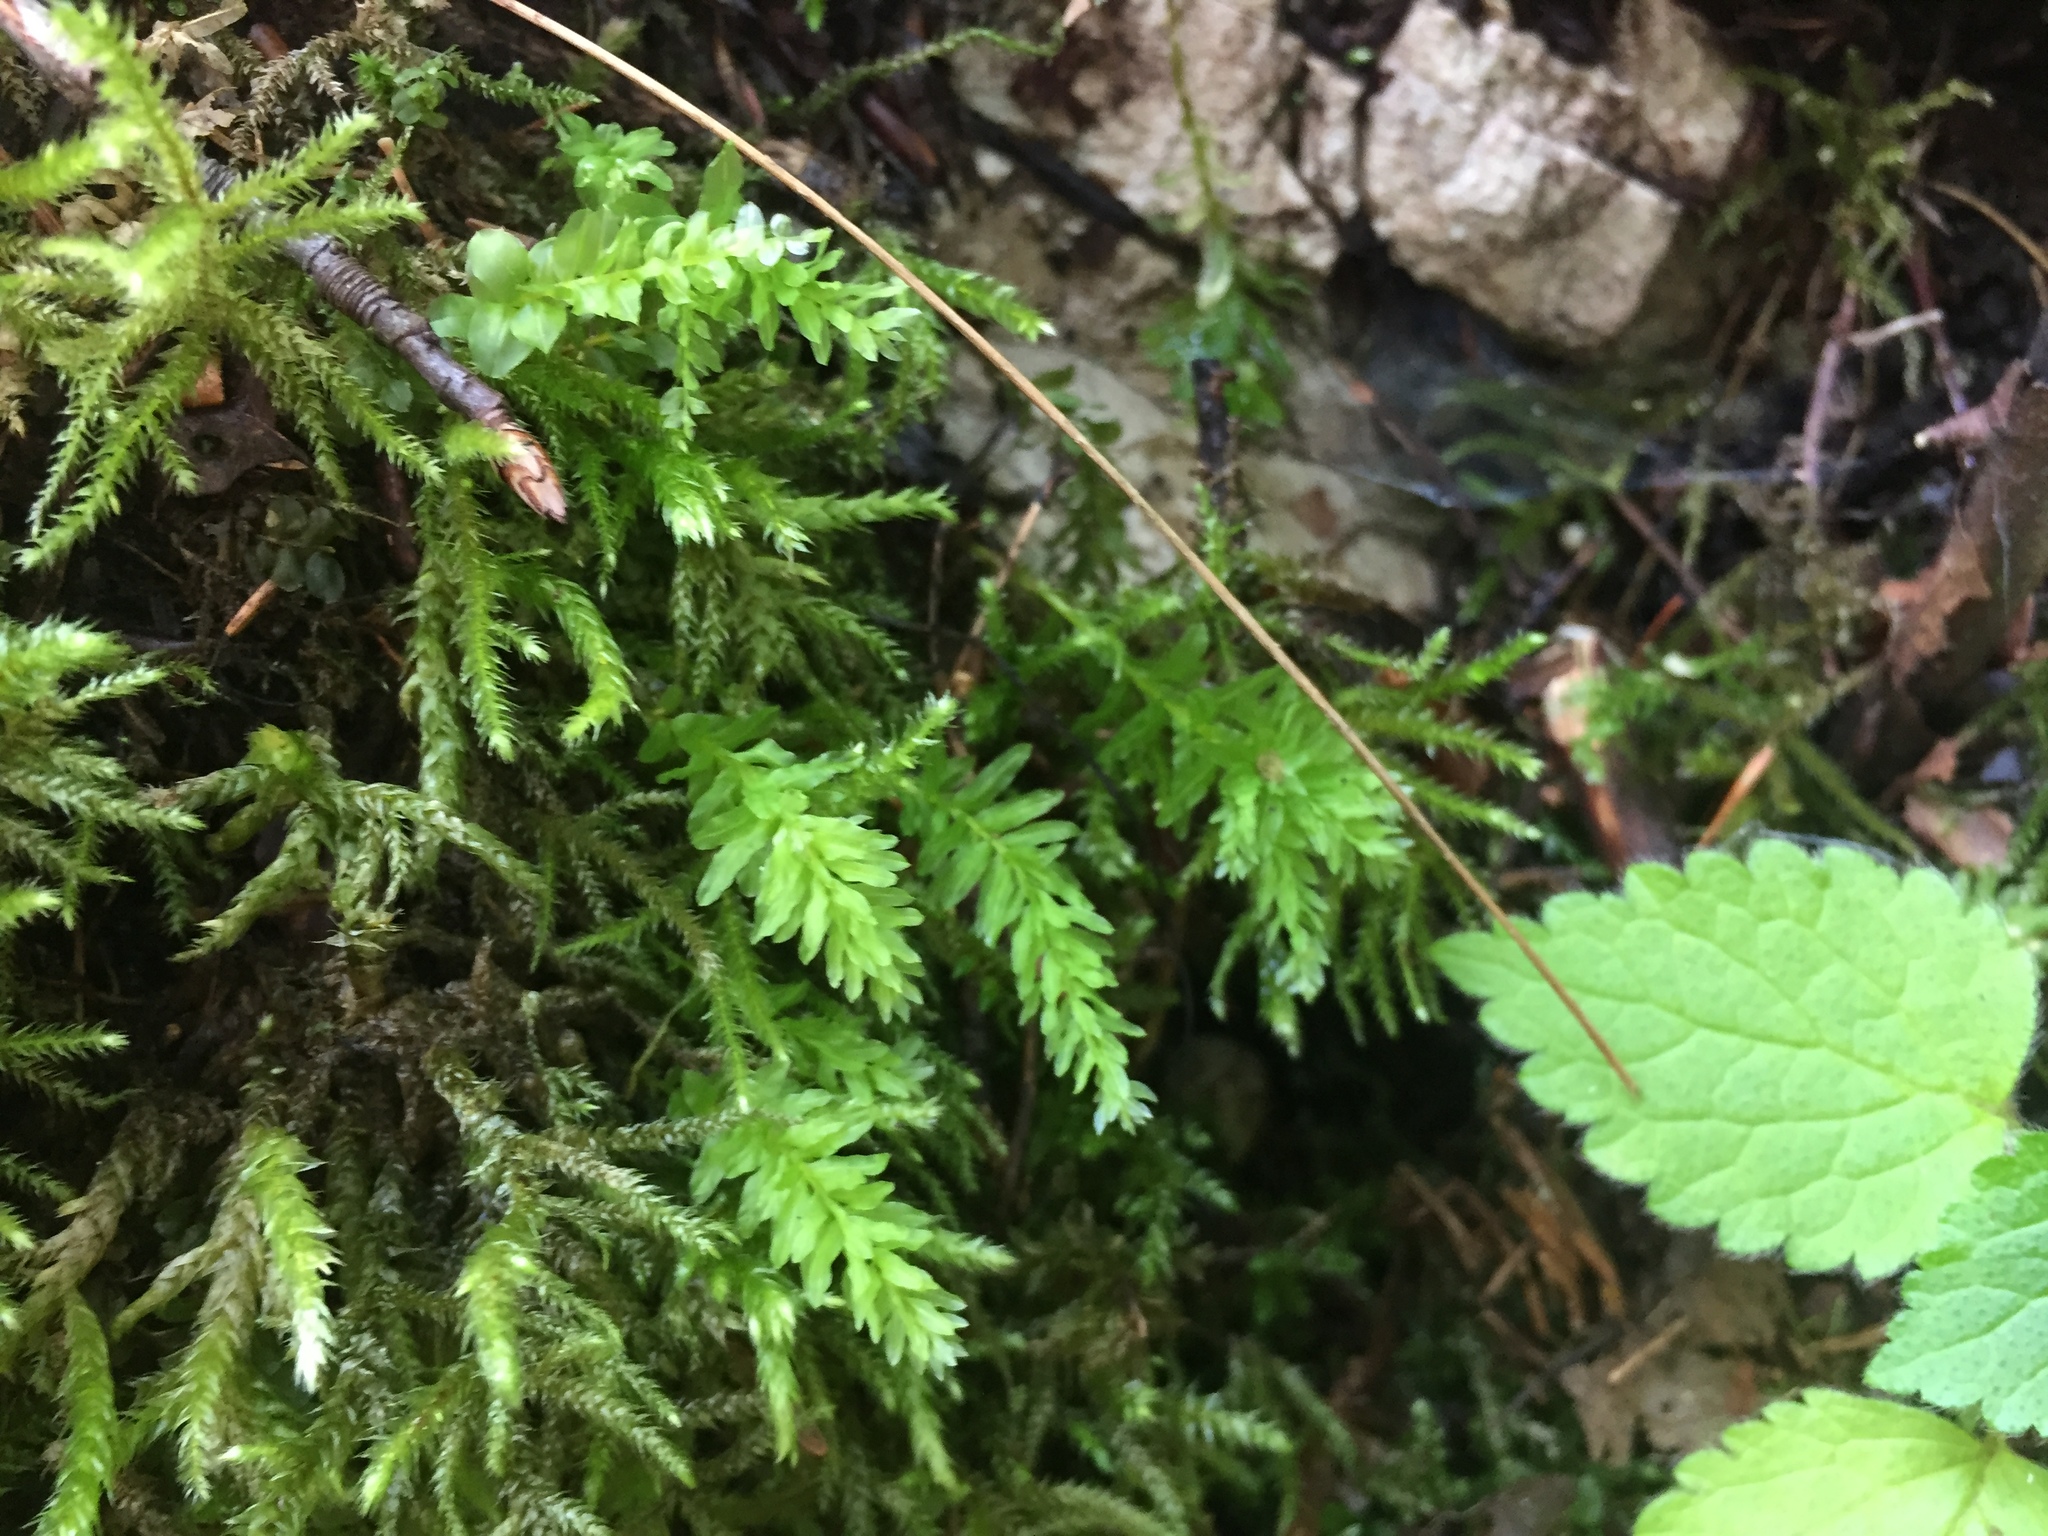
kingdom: Plantae
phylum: Bryophyta
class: Bryopsida
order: Bryales
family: Mniaceae
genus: Plagiomnium
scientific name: Plagiomnium undulatum
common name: Hart's-tongue thyme-moss
